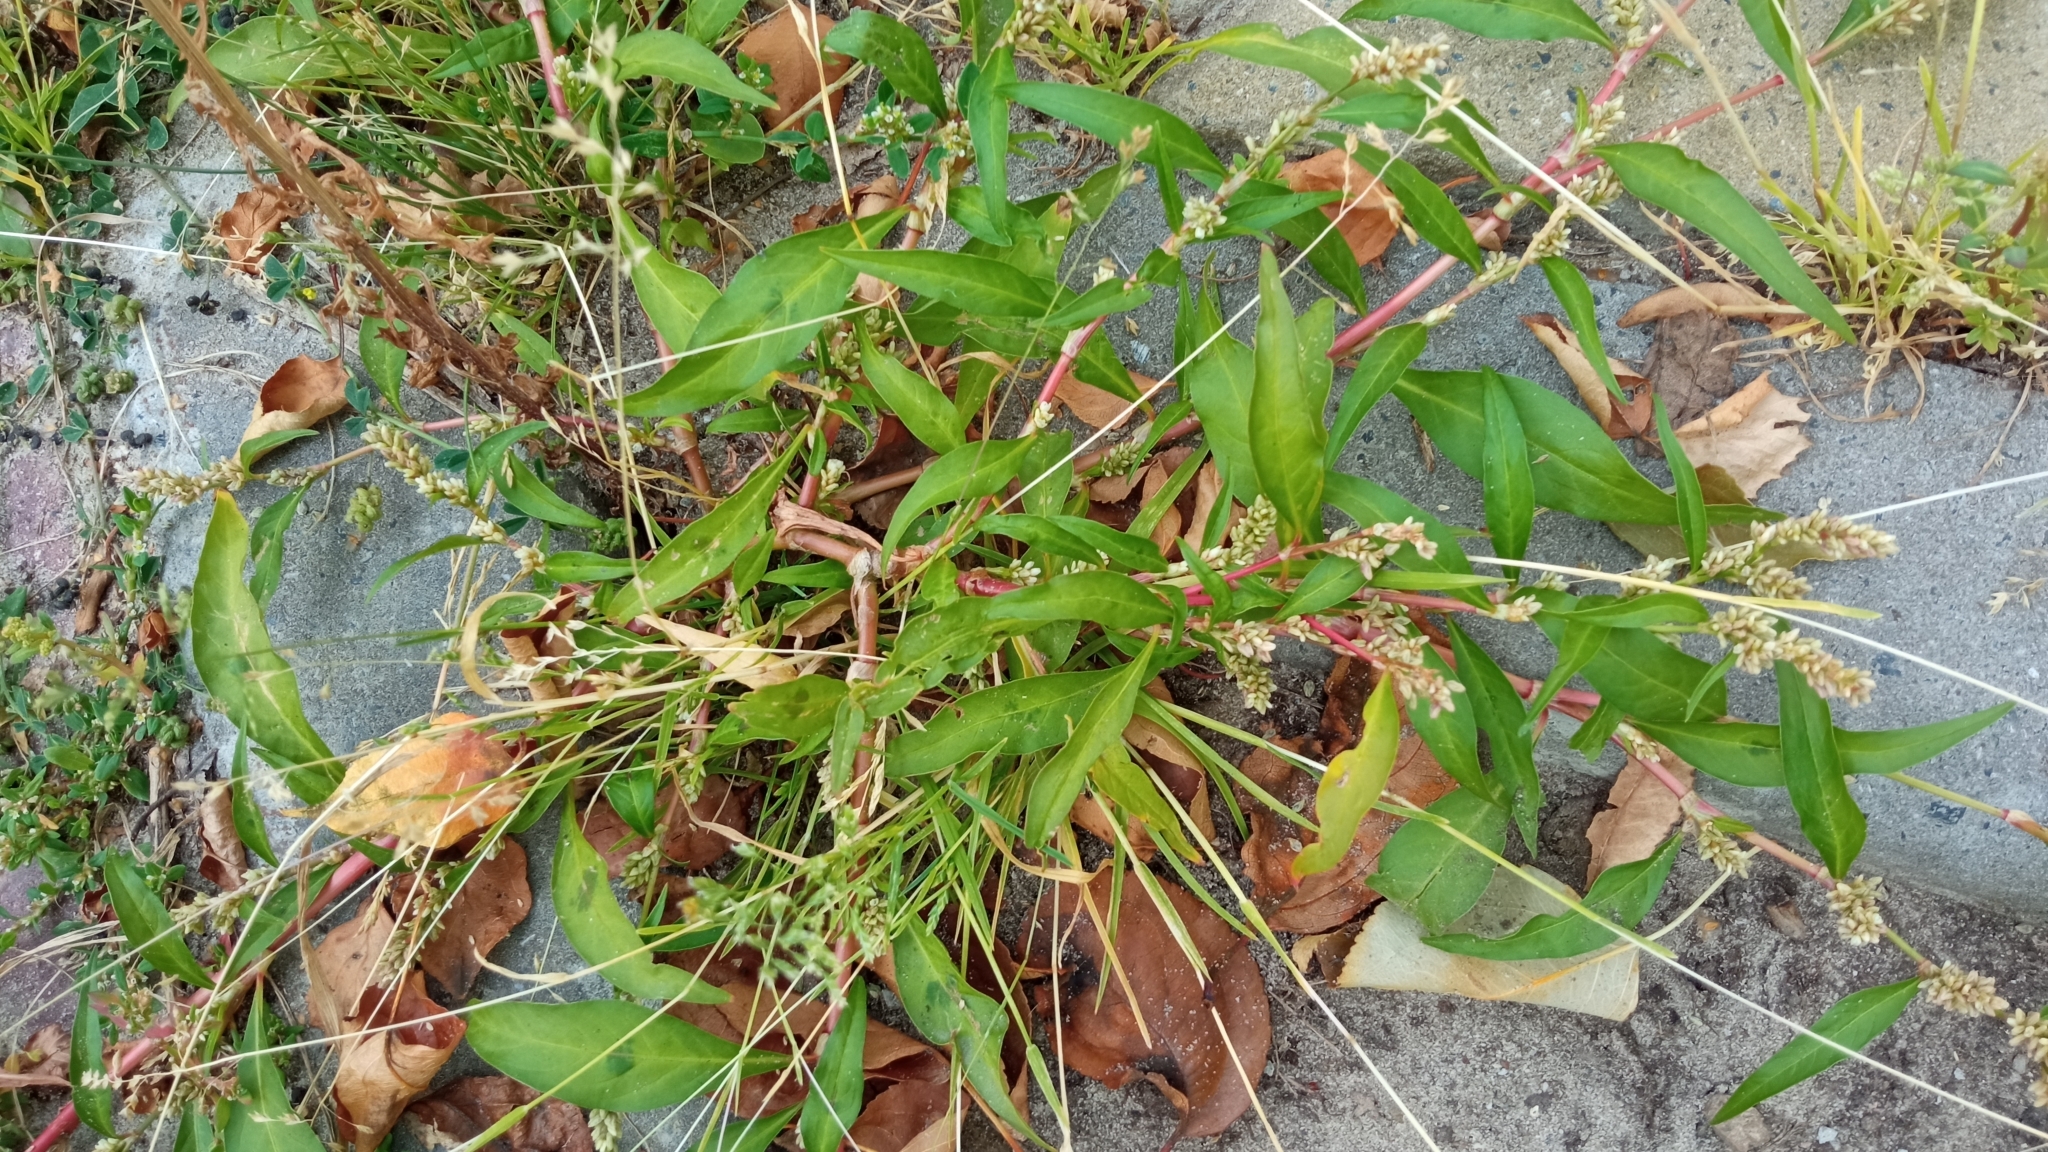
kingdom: Plantae
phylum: Tracheophyta
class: Magnoliopsida
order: Caryophyllales
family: Polygonaceae
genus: Persicaria
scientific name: Persicaria lapathifolia
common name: Curlytop knotweed
